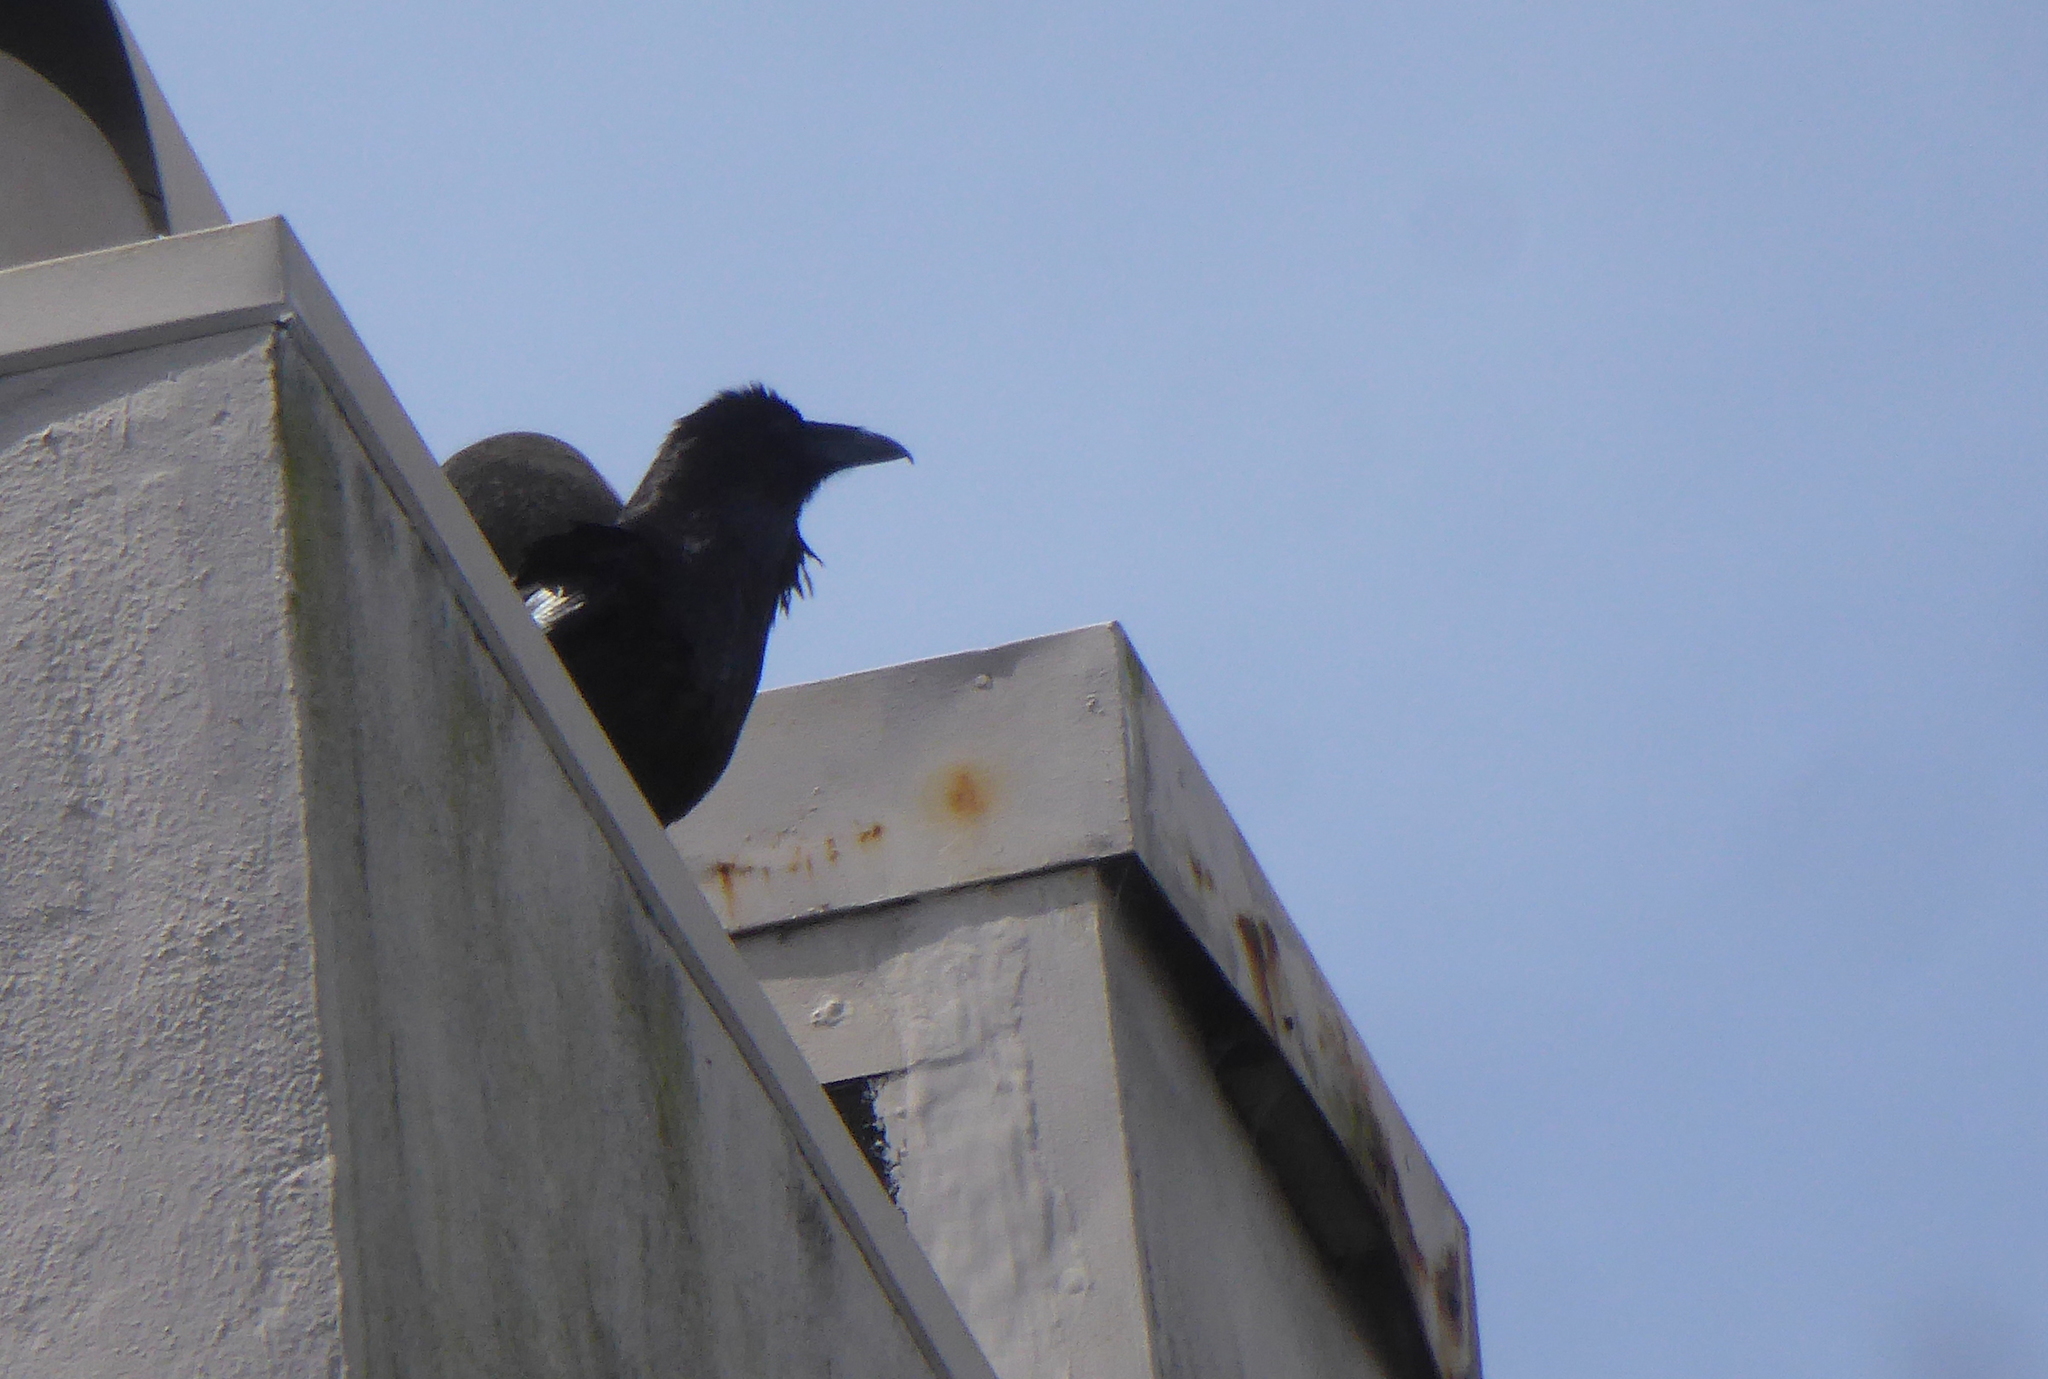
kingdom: Animalia
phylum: Chordata
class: Aves
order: Passeriformes
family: Corvidae
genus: Corvus
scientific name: Corvus corax
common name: Common raven
